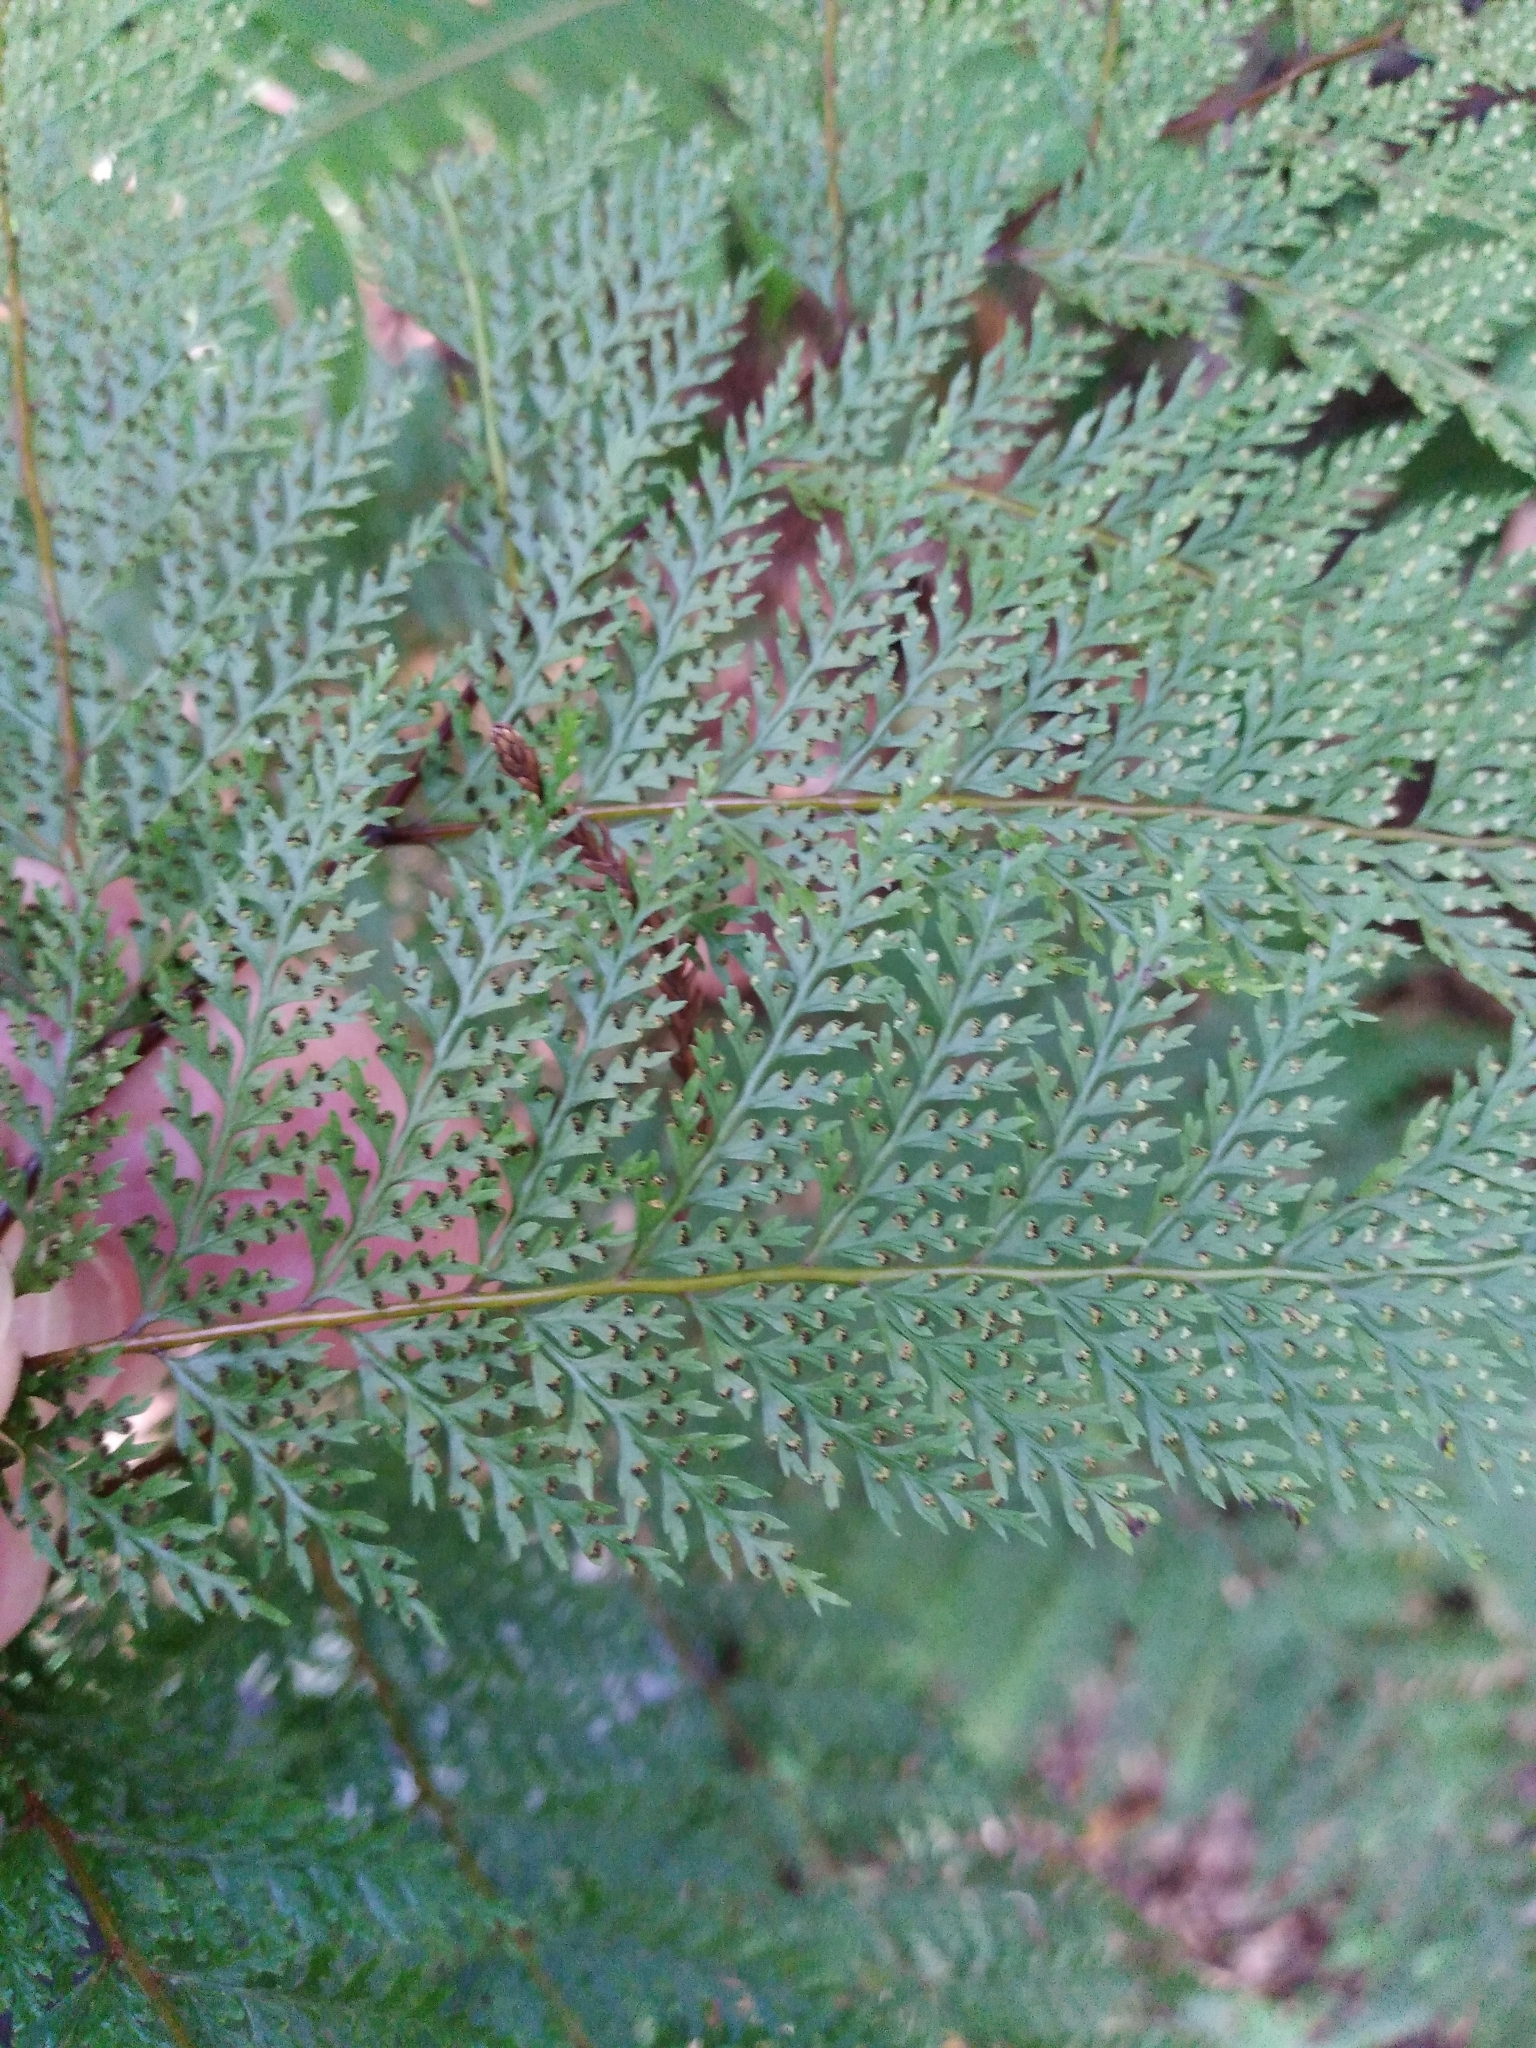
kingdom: Plantae
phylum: Tracheophyta
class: Polypodiopsida
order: Polypodiales
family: Dennstaedtiaceae
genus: Dennstaedtia
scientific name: Dennstaedtia novae-zelandiae
